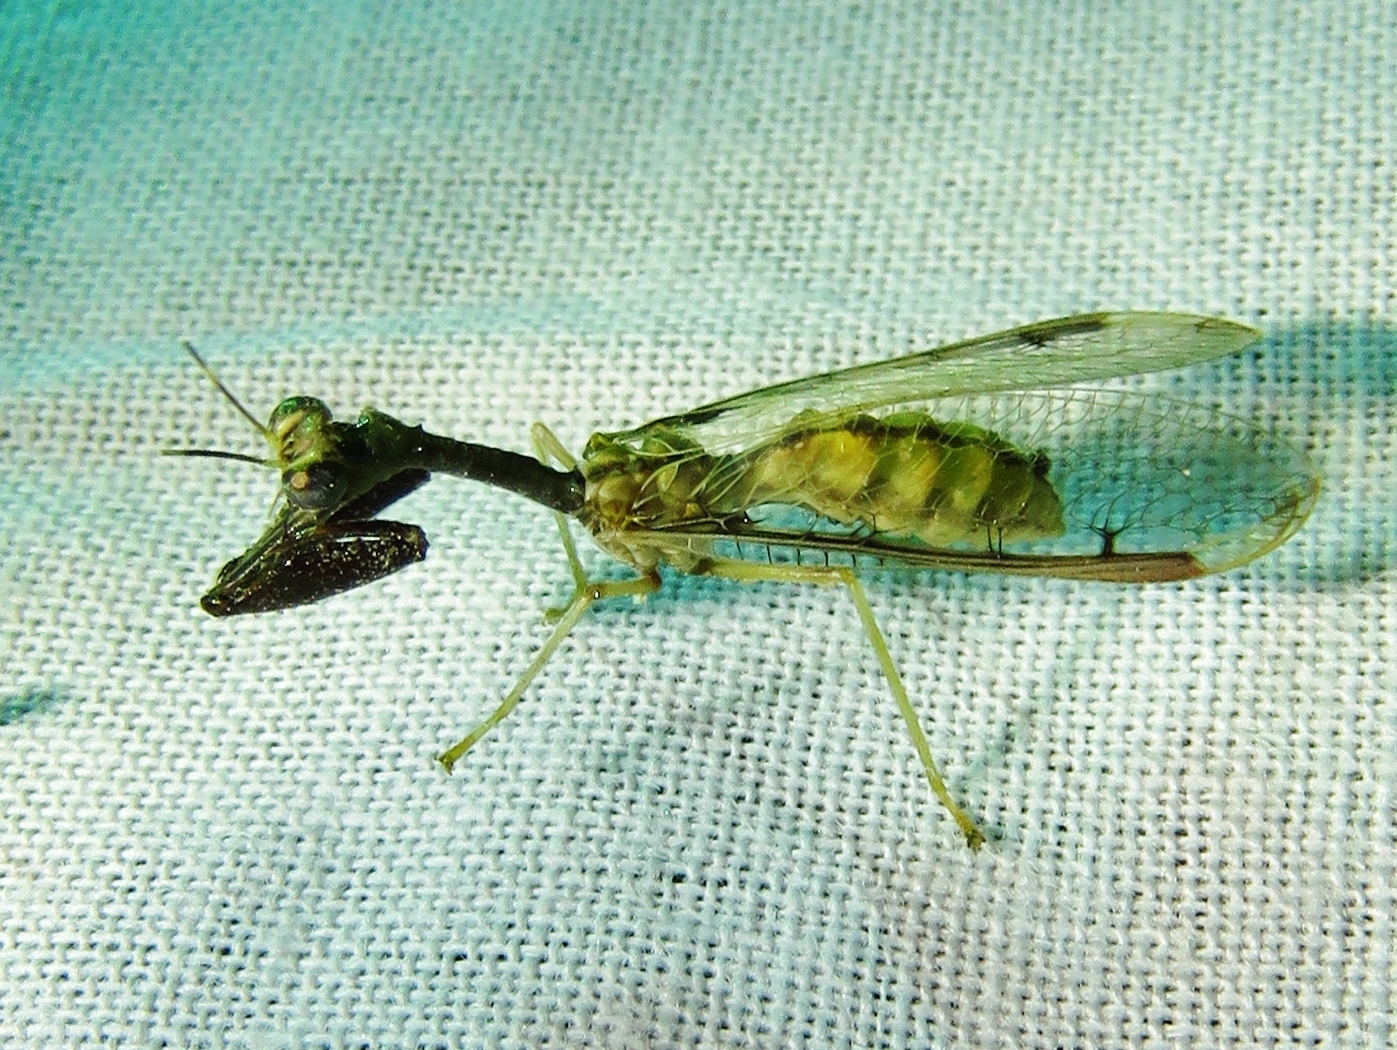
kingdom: Animalia
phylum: Arthropoda
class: Insecta
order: Neuroptera
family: Mantispidae
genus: Dicromantispa
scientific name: Dicromantispa interrupta
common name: Four-spotted mantidfly
